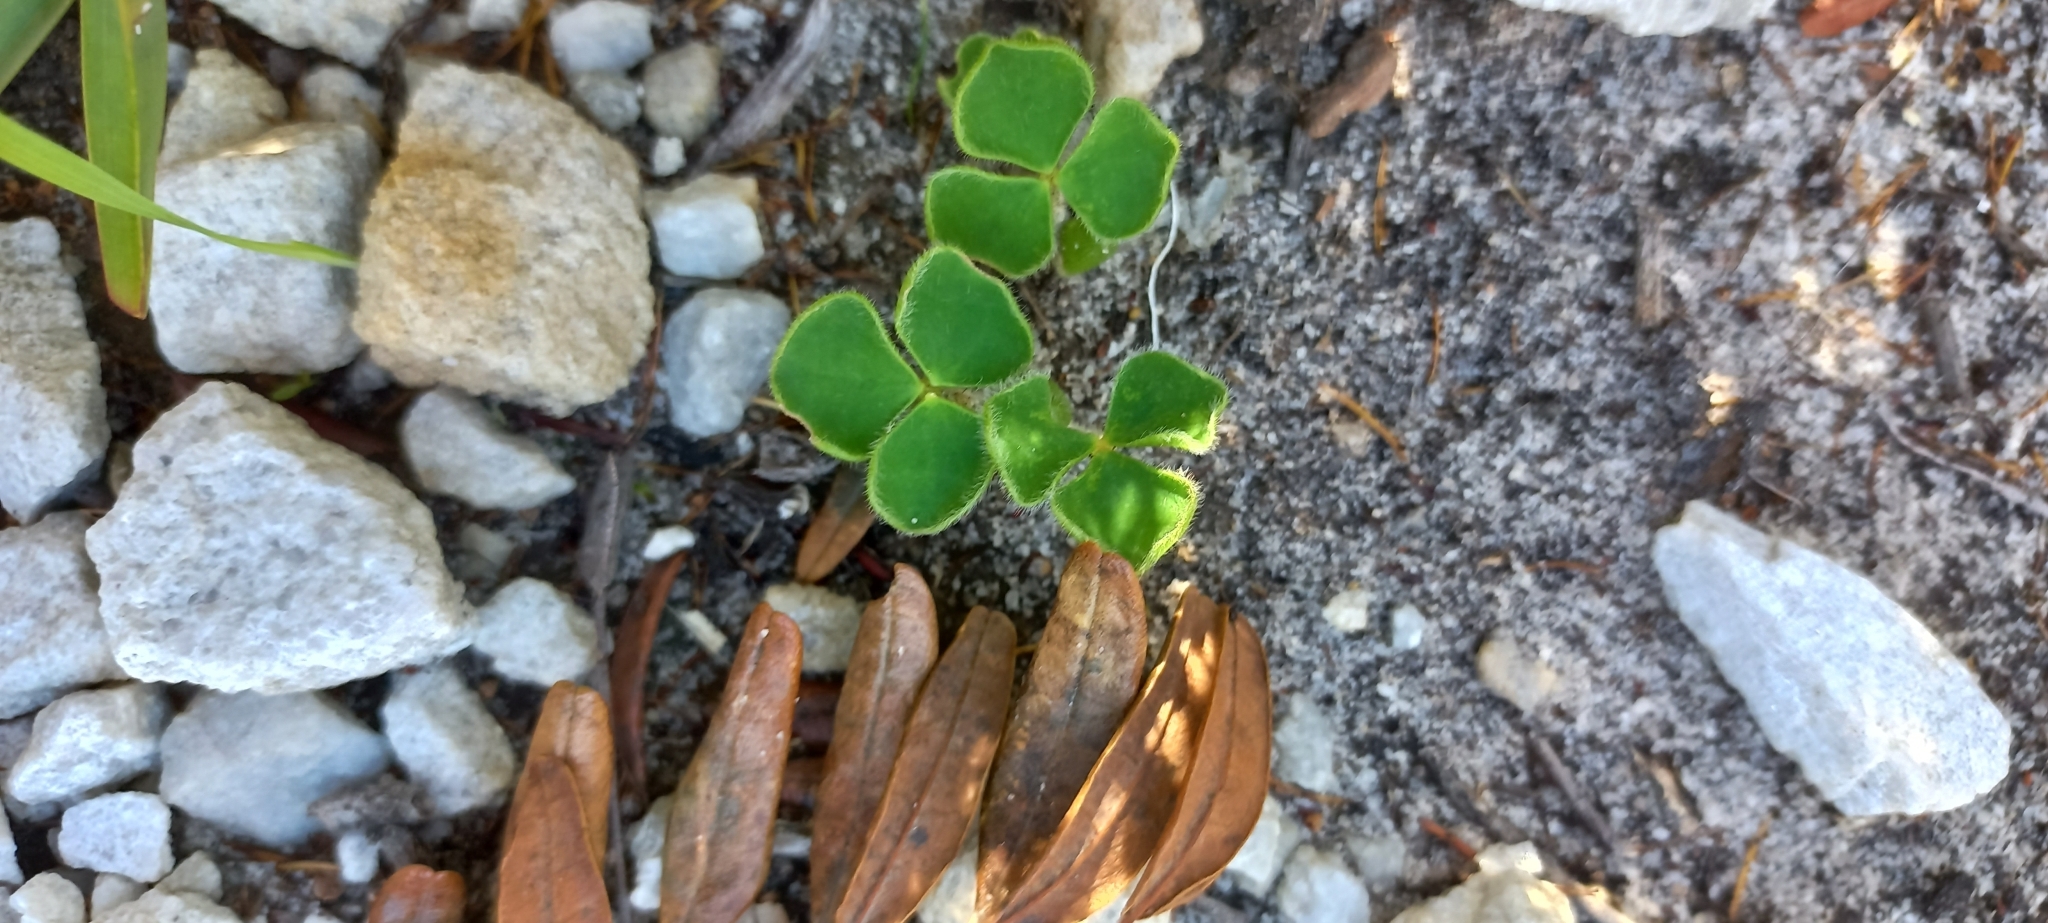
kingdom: Plantae
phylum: Tracheophyta
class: Magnoliopsida
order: Oxalidales
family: Oxalidaceae
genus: Oxalis
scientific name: Oxalis luteola
